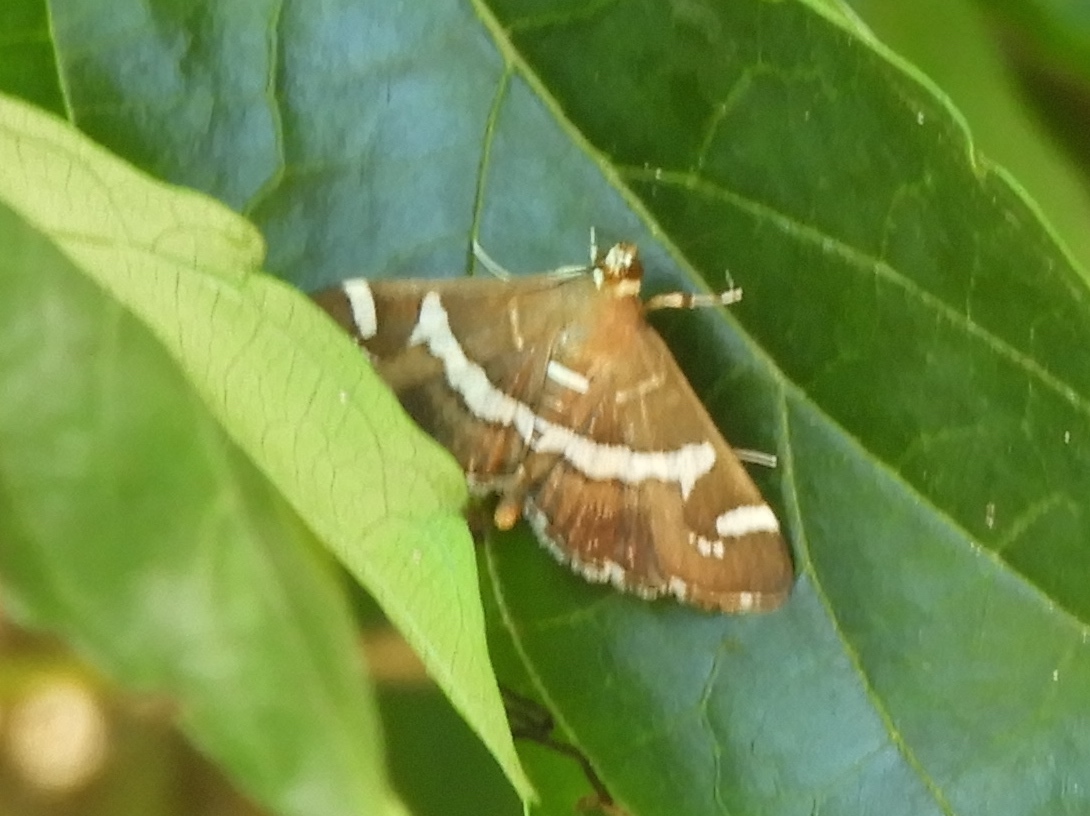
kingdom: Animalia
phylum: Arthropoda
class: Insecta
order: Lepidoptera
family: Crambidae
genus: Spoladea
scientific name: Spoladea recurvalis
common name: Beet webworm moth
